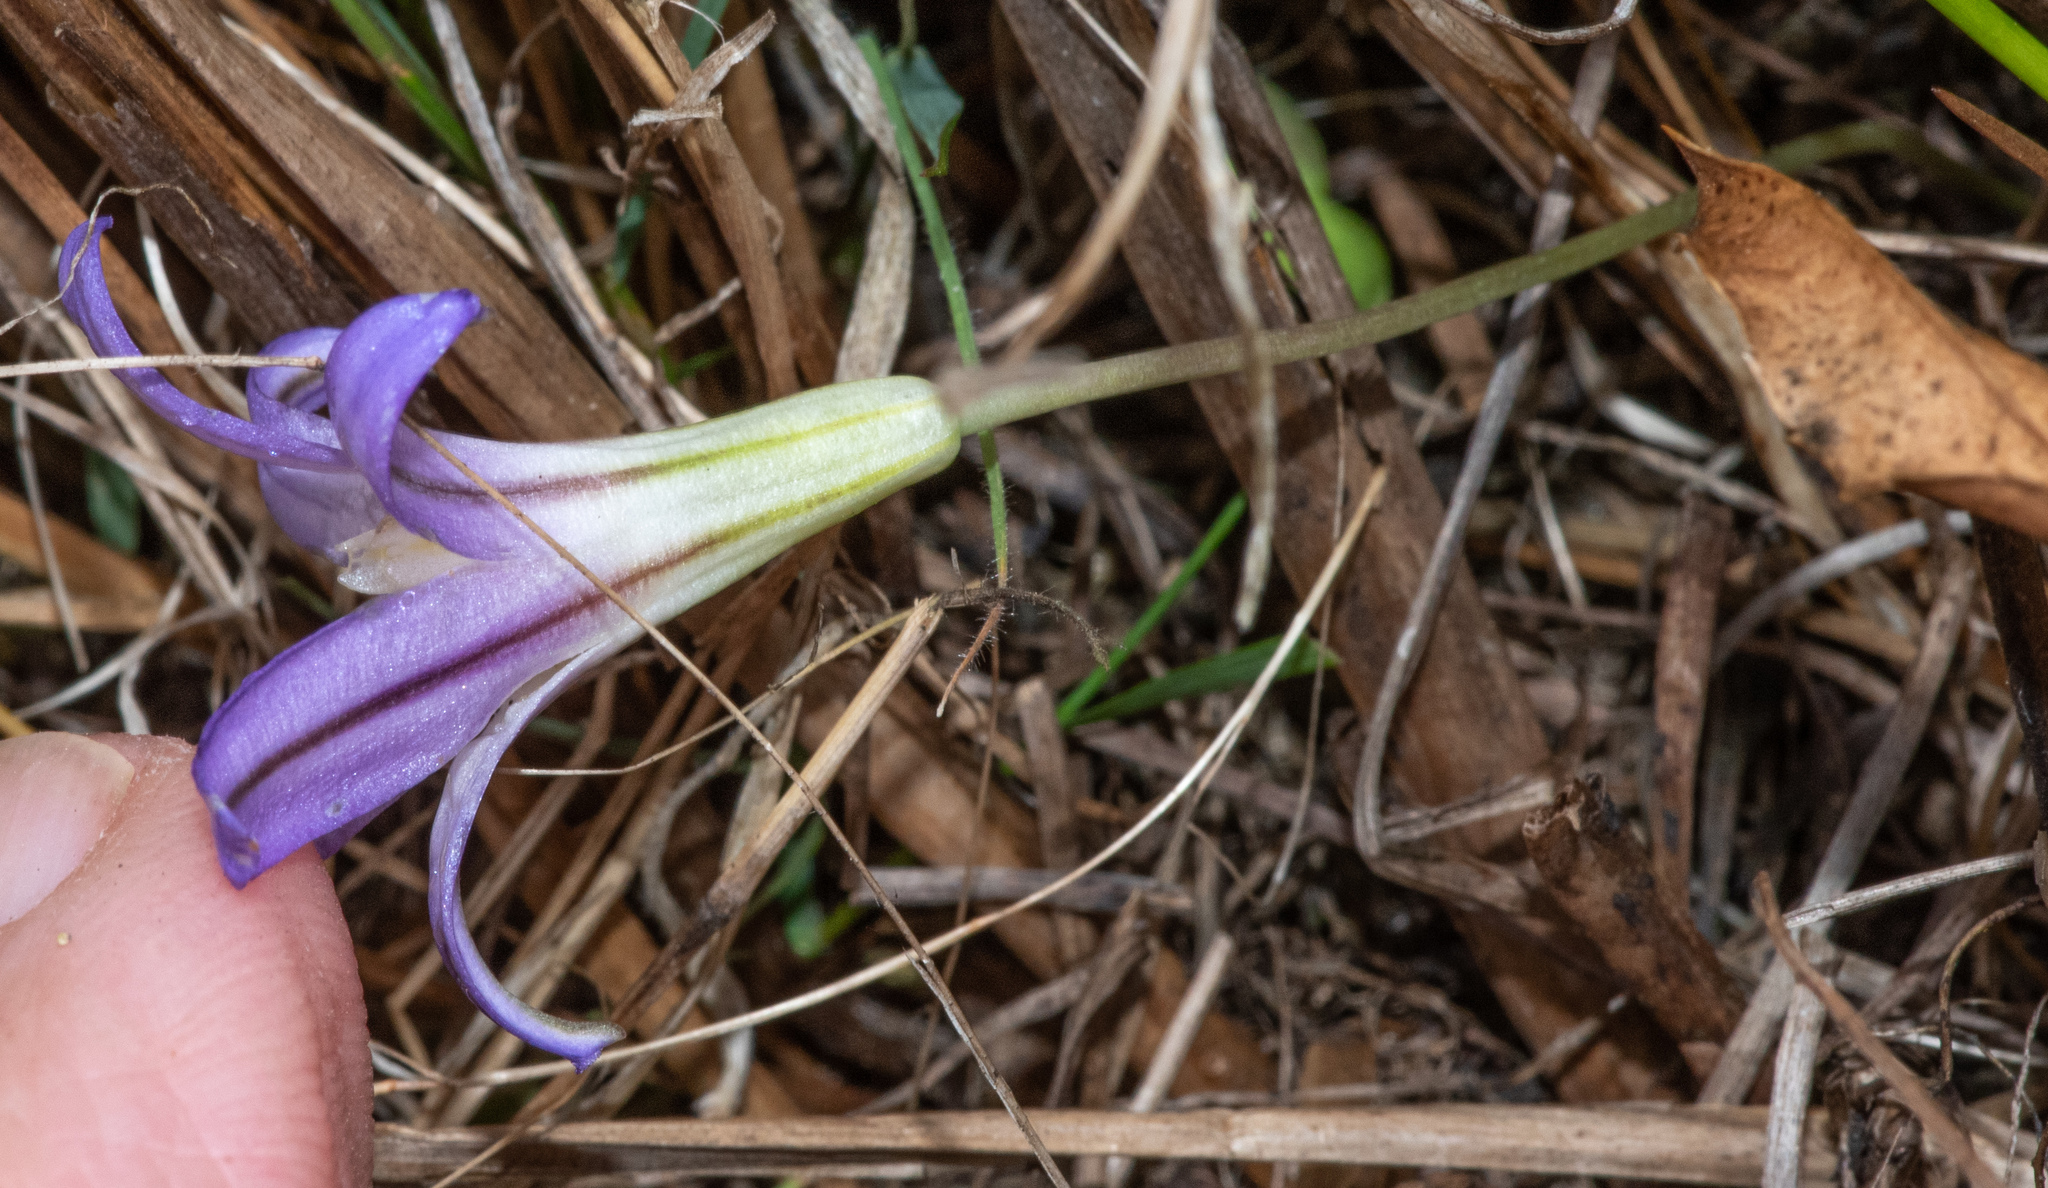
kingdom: Plantae
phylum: Tracheophyta
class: Liliopsida
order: Asparagales
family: Asparagaceae
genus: Brodiaea
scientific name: Brodiaea terrestris
